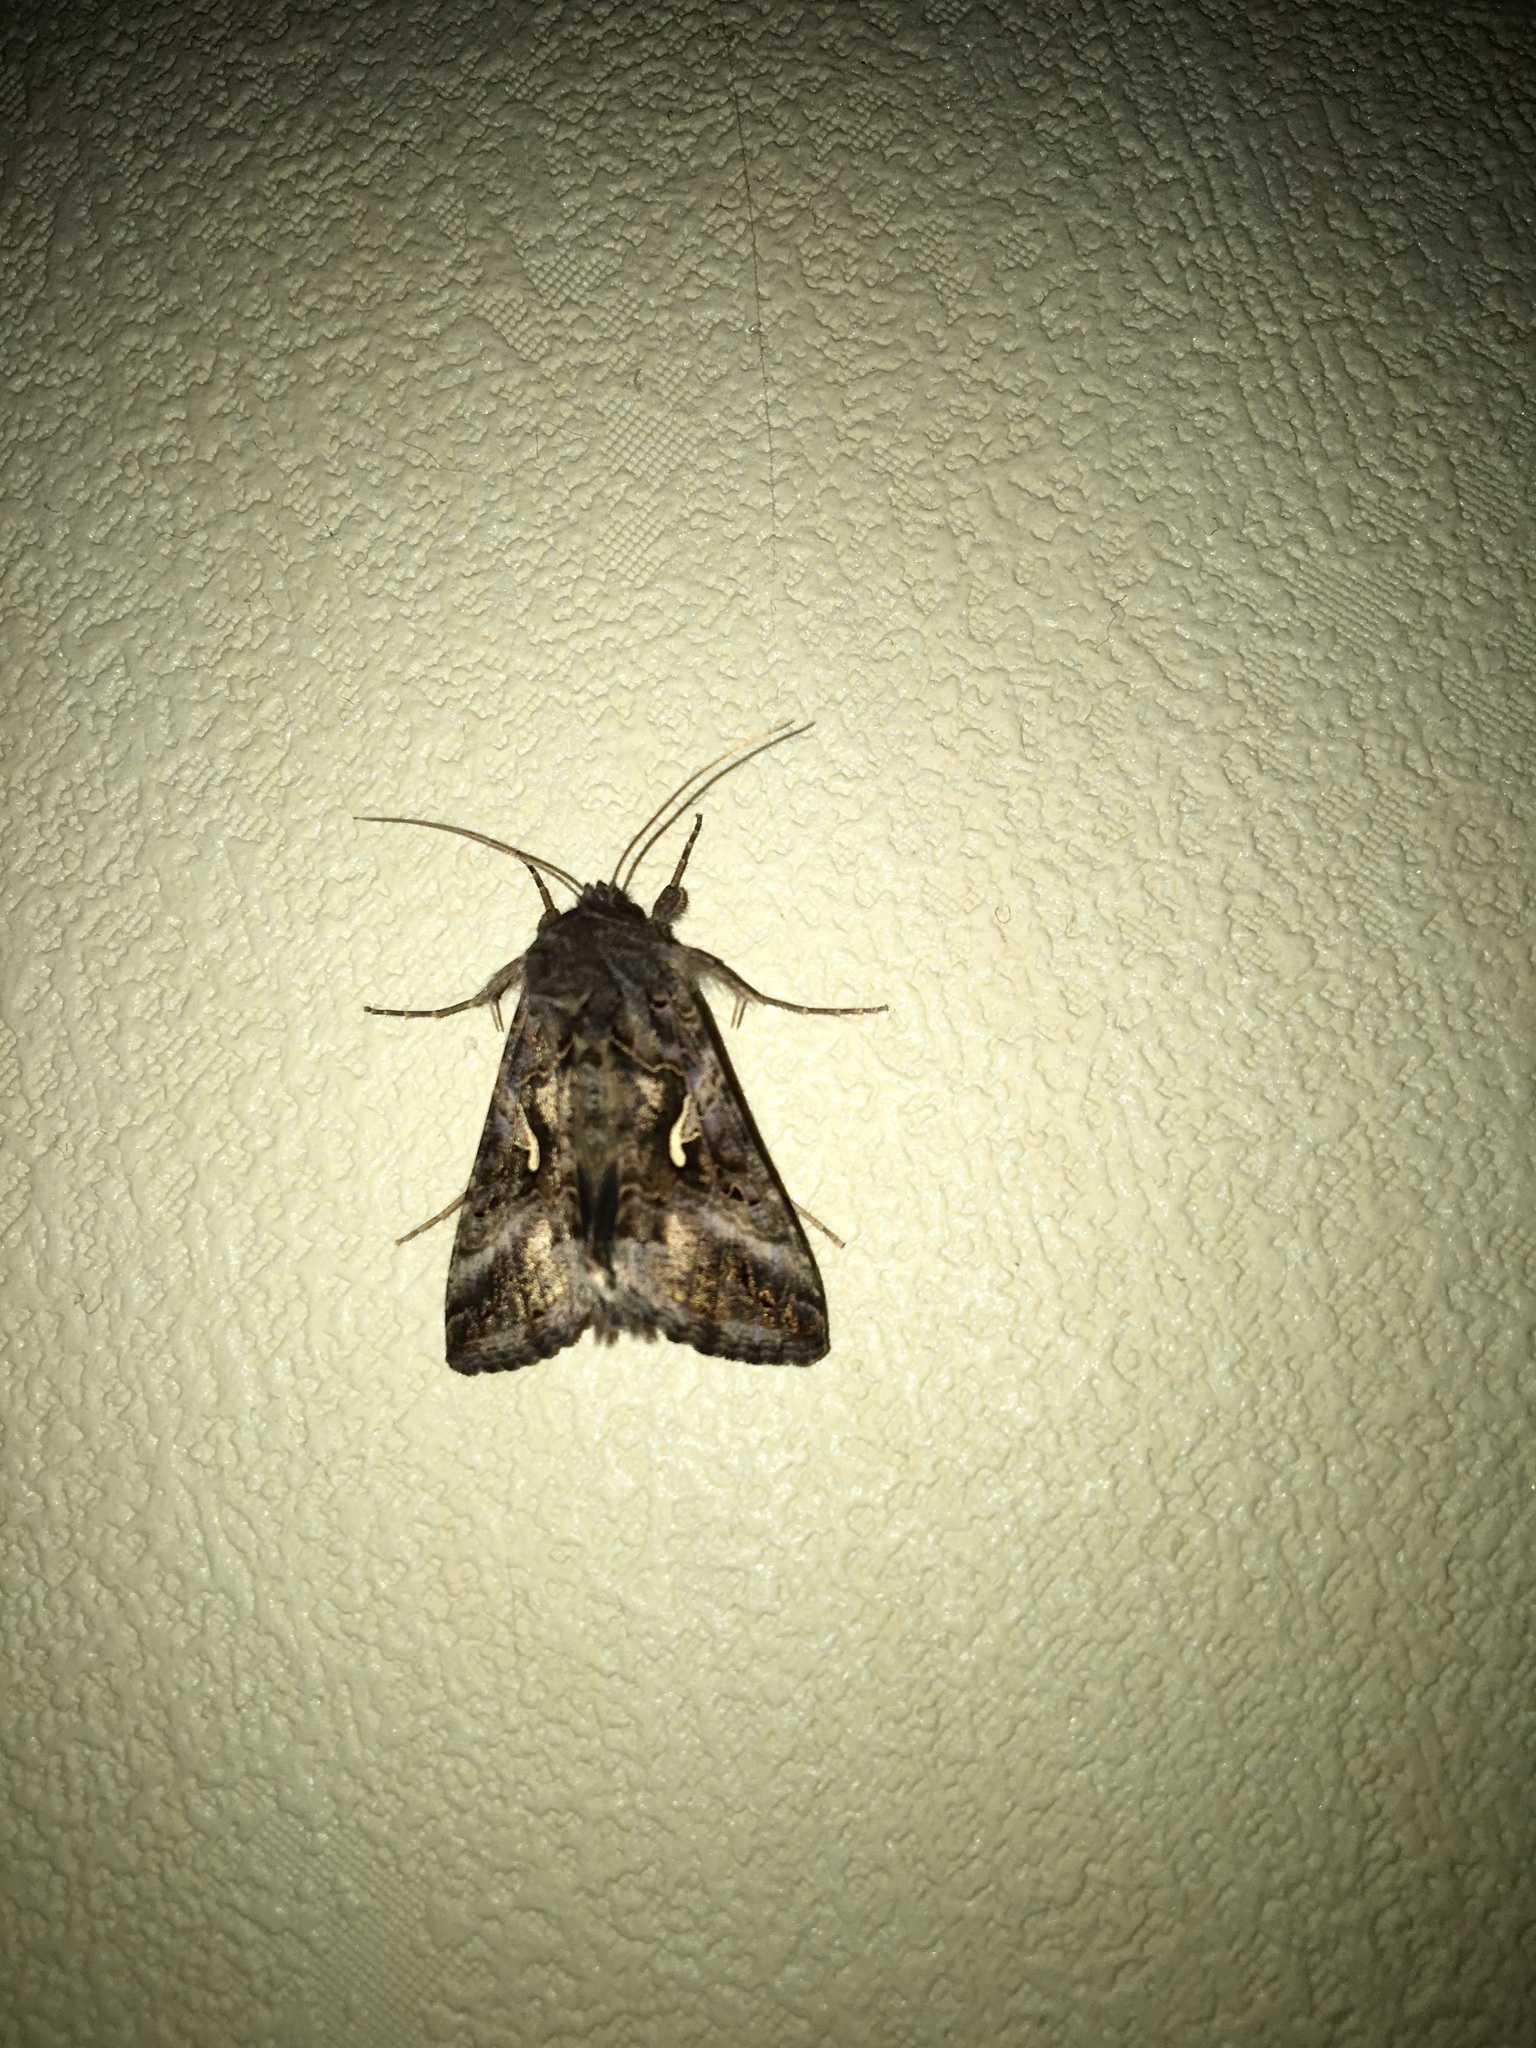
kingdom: Animalia
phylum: Arthropoda
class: Insecta
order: Lepidoptera
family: Noctuidae
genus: Autographa
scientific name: Autographa gamma
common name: Silver y
